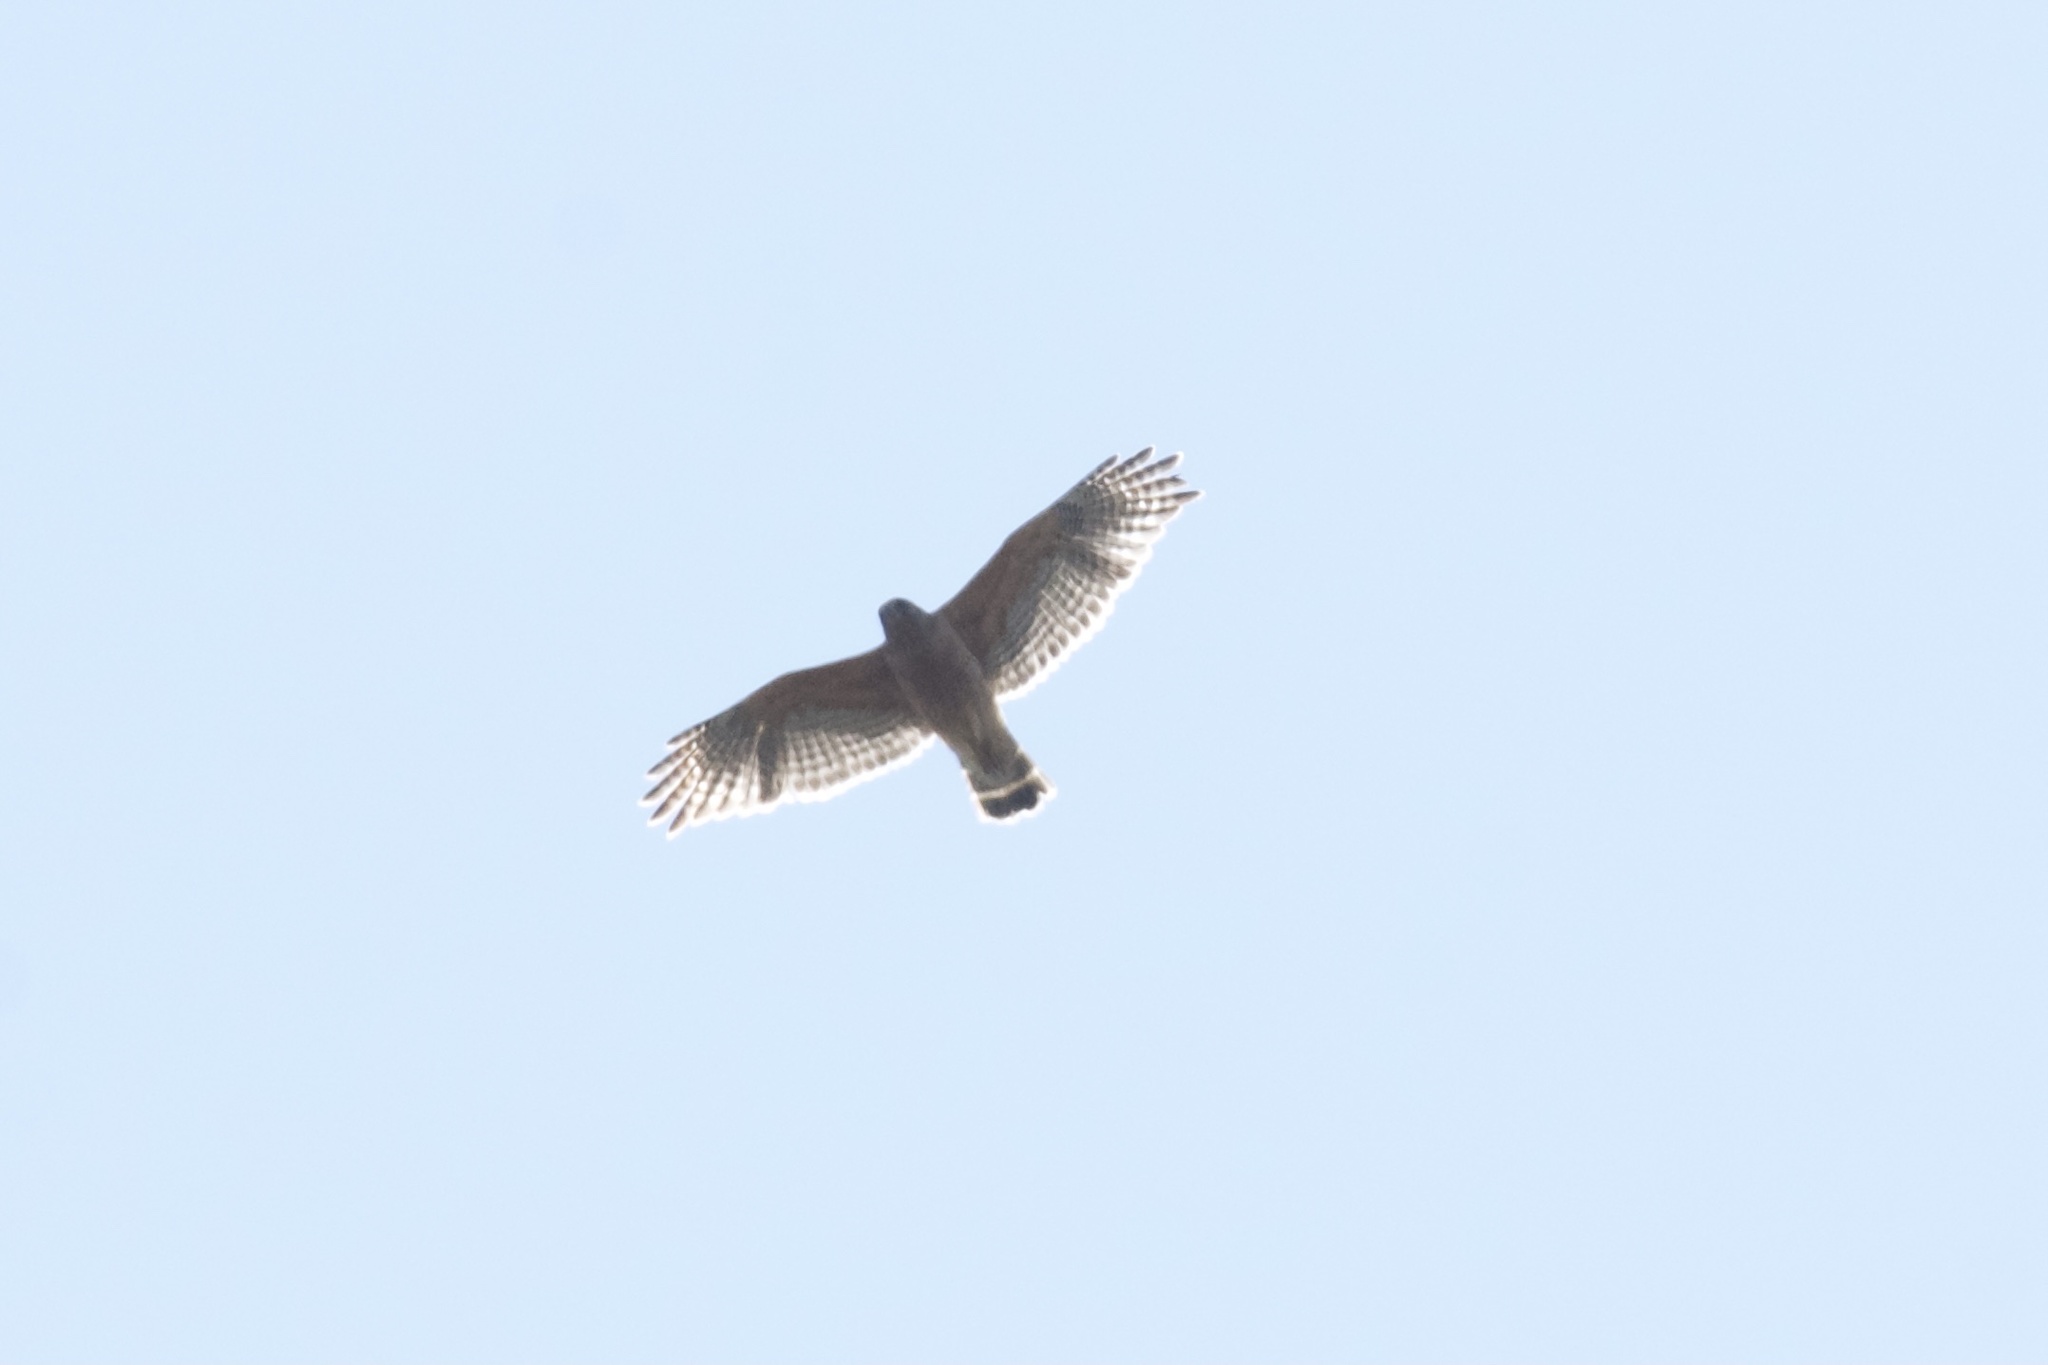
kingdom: Animalia
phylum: Chordata
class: Aves
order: Accipitriformes
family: Accipitridae
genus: Buteo
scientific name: Buteo lineatus
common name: Red-shouldered hawk
